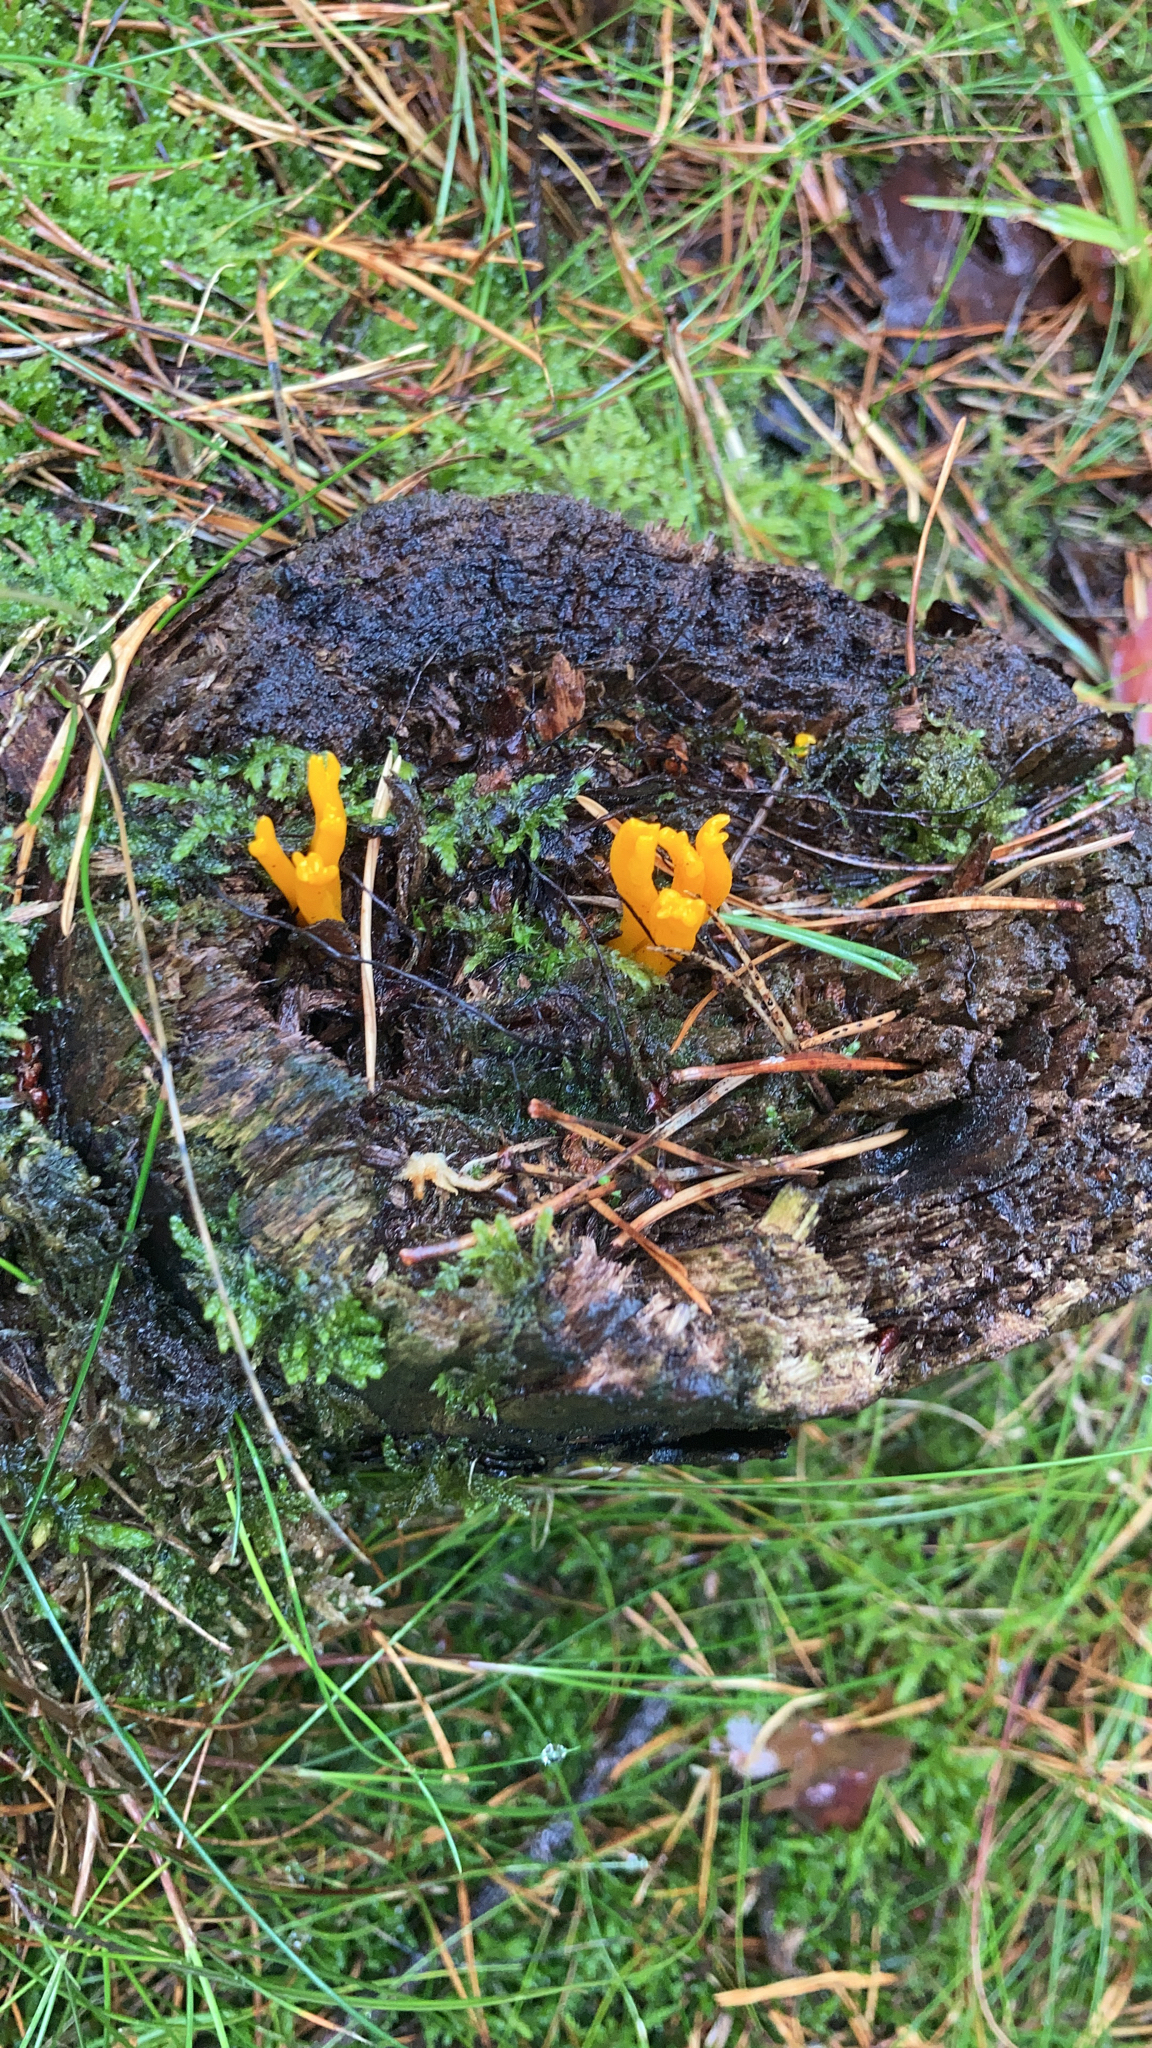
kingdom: Fungi
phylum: Basidiomycota
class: Dacrymycetes
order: Dacrymycetales
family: Dacrymycetaceae
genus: Calocera
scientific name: Calocera viscosa
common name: Yellow stagshorn
